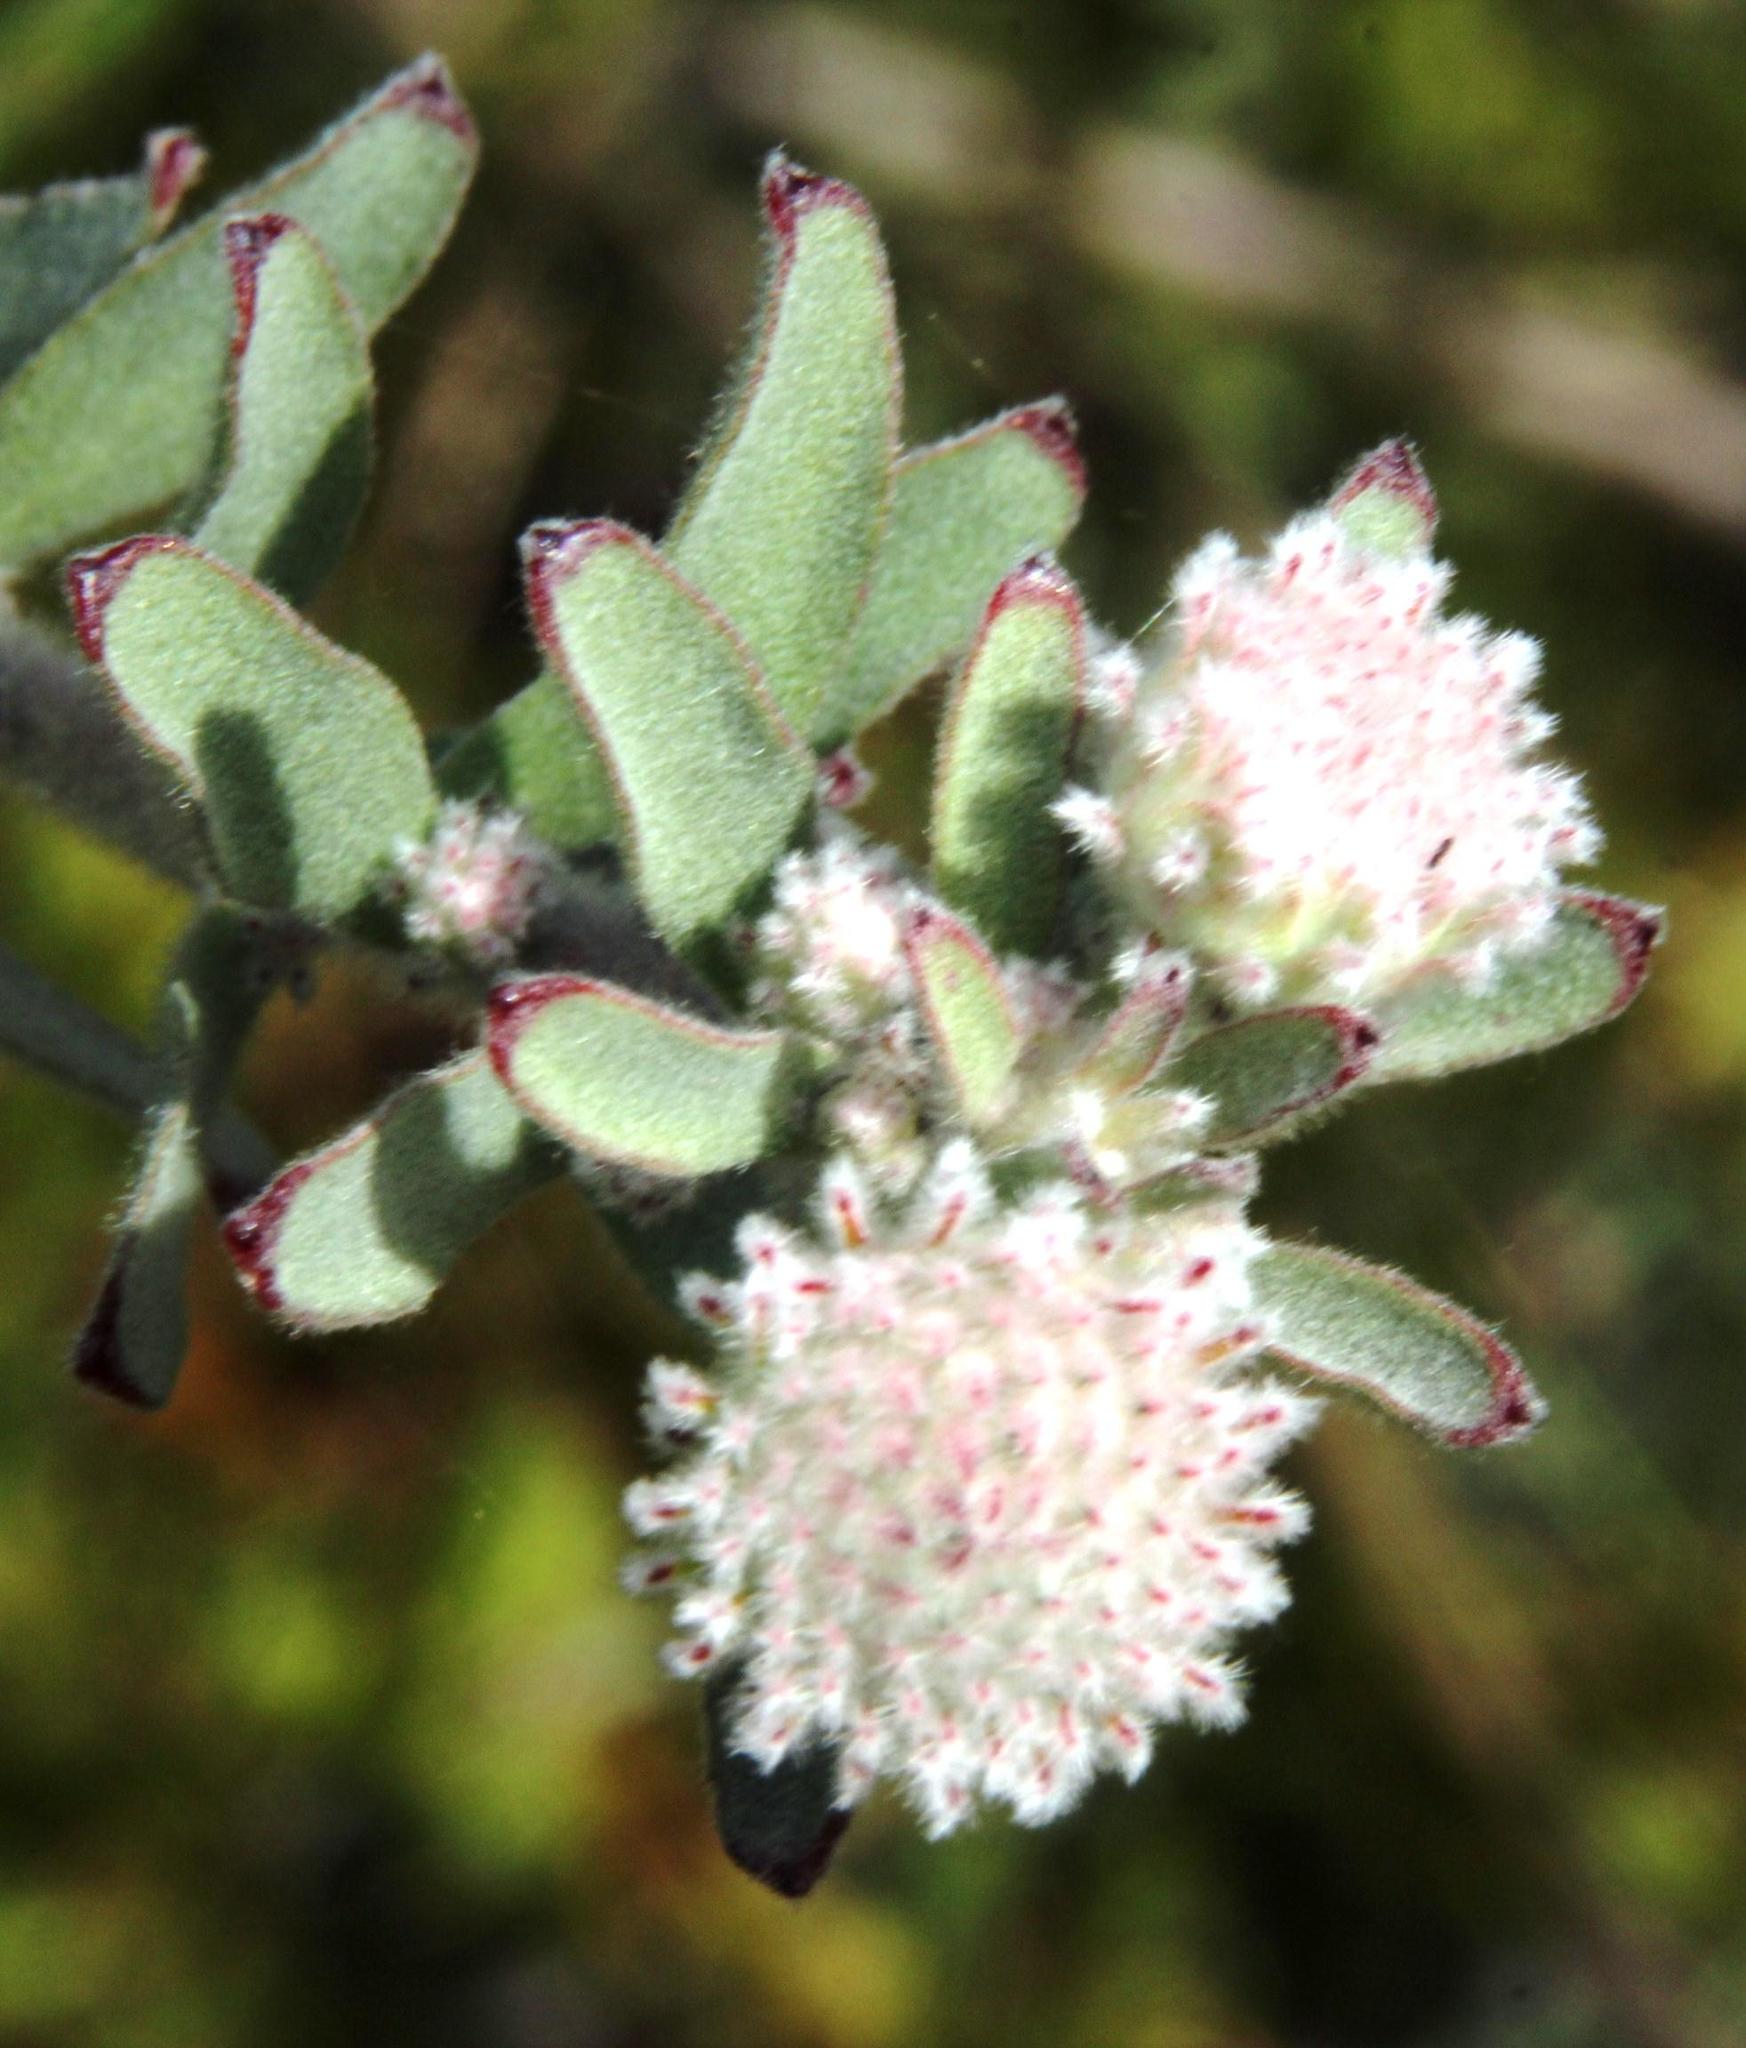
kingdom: Plantae
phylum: Tracheophyta
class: Magnoliopsida
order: Proteales
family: Proteaceae
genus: Leucospermum
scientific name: Leucospermum calligerum
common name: Arid pincushion
